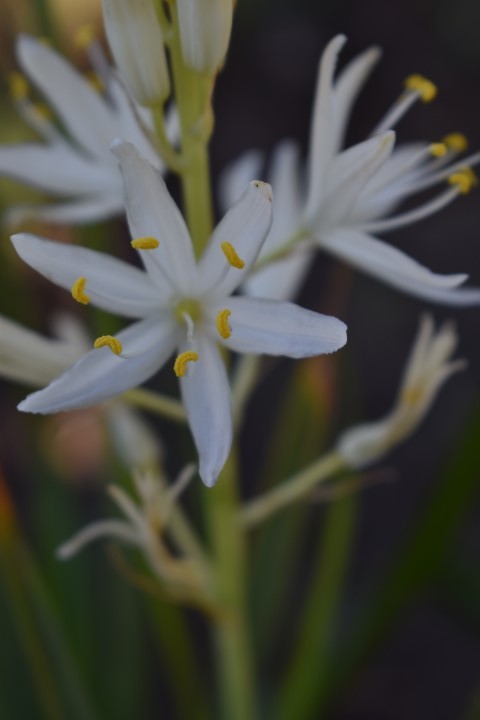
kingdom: Plantae
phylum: Tracheophyta
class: Liliopsida
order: Asparagales
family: Asparagaceae
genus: Camassia
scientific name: Camassia leichtlinii
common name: Leichtlin's camas
